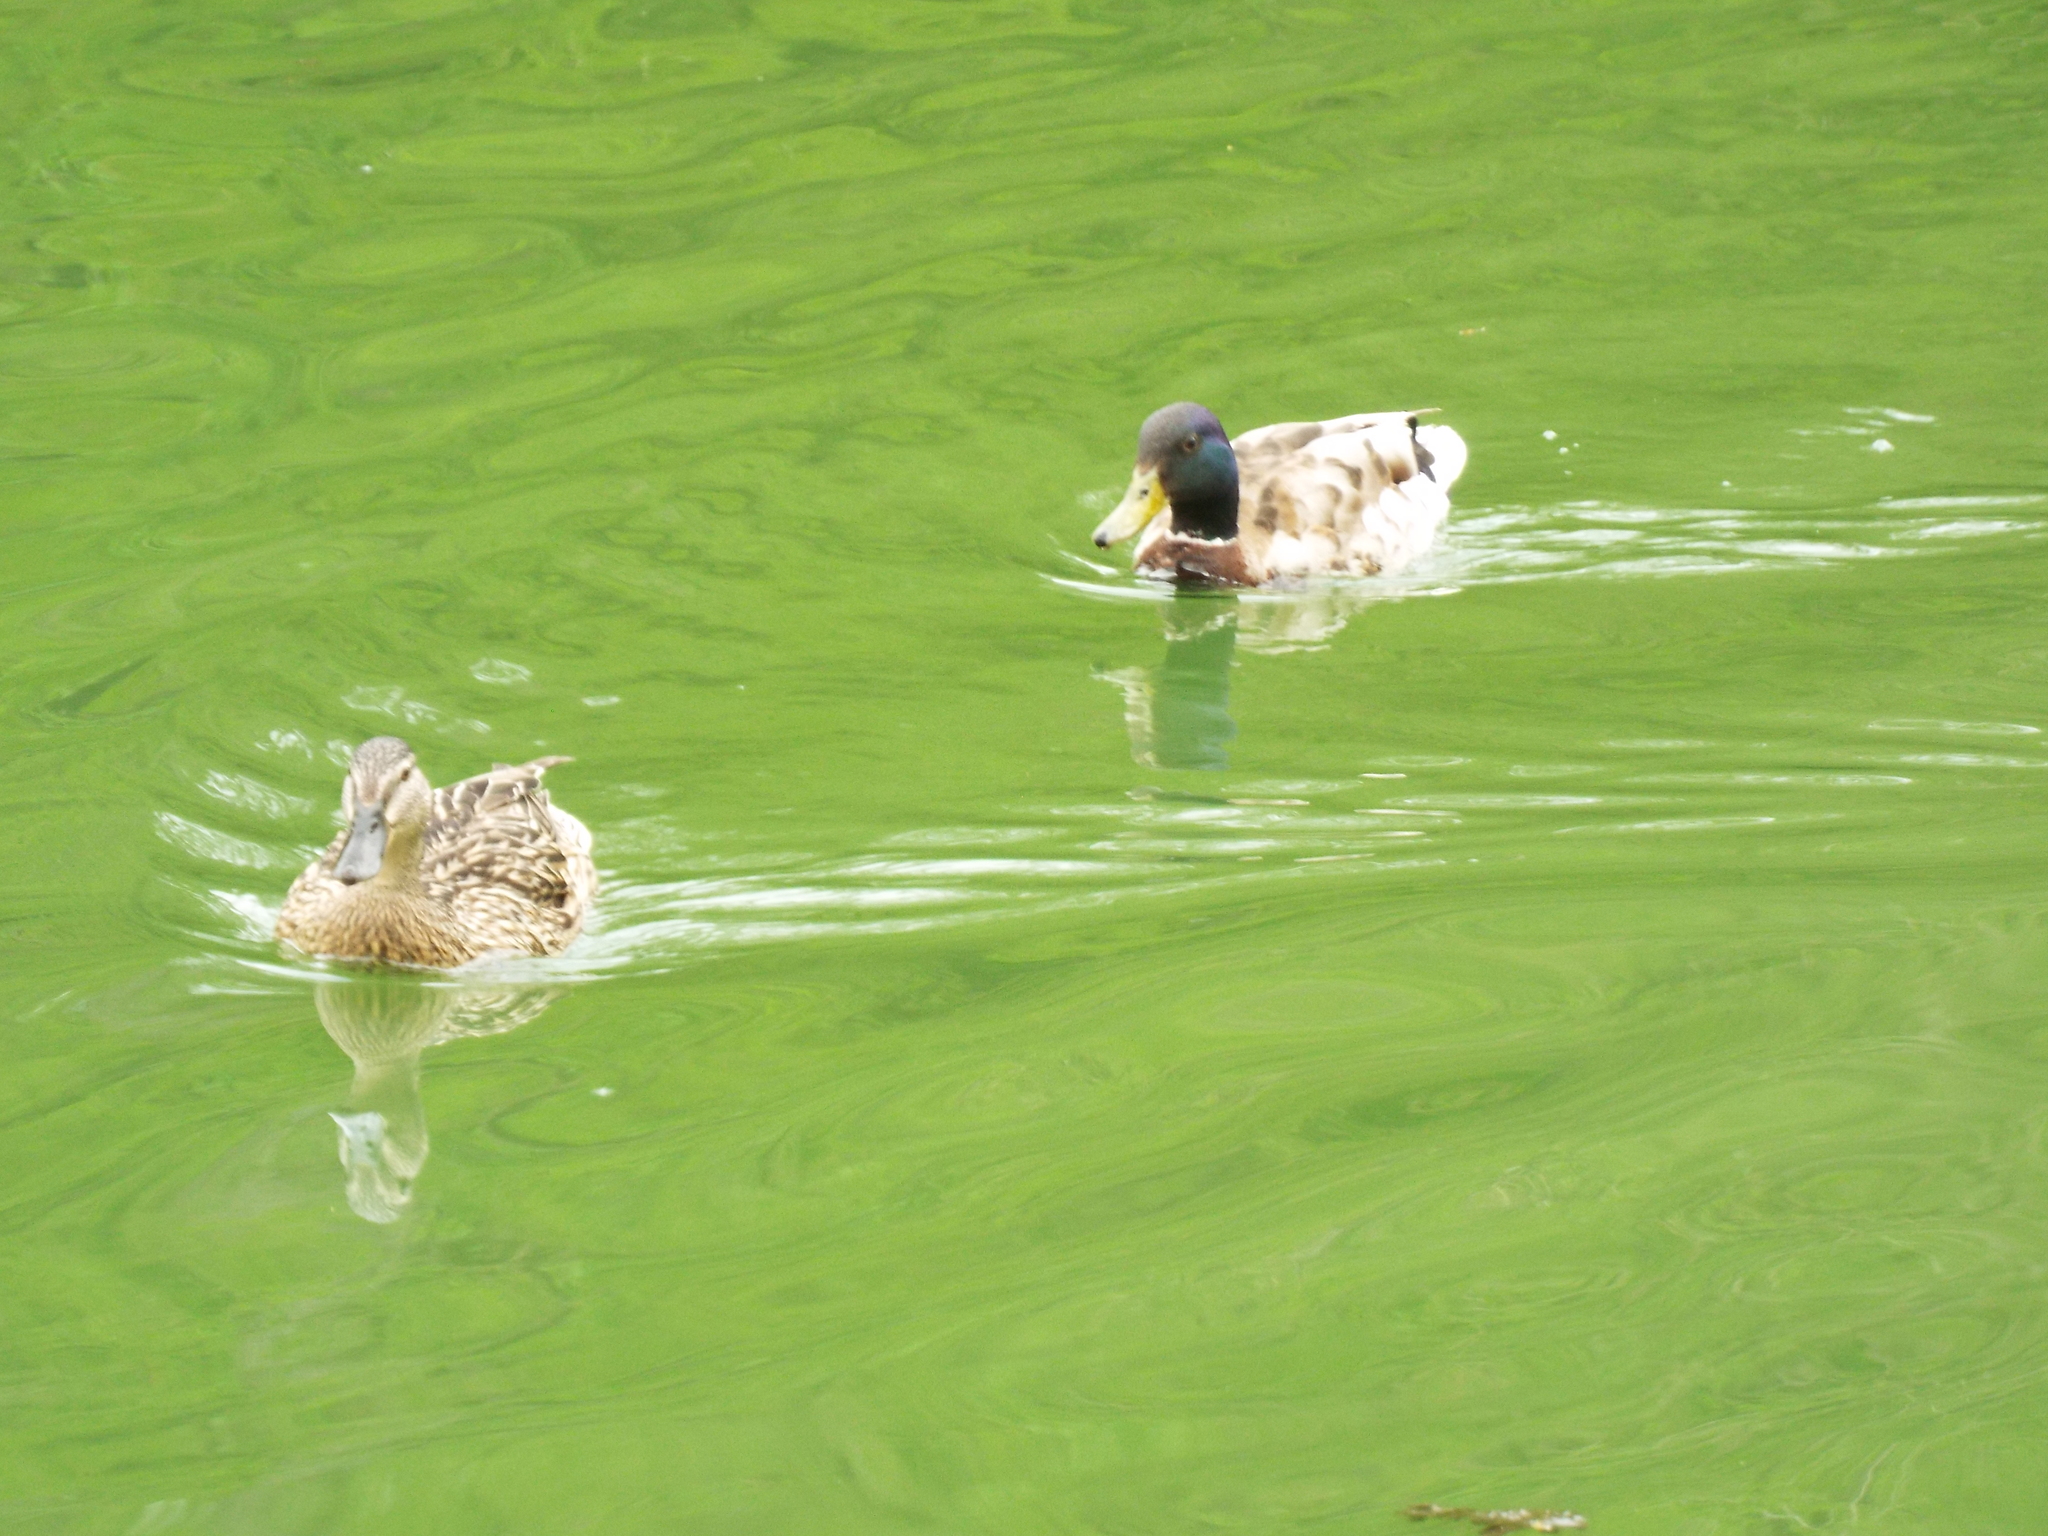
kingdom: Animalia
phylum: Chordata
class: Aves
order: Anseriformes
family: Anatidae
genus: Anas
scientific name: Anas platyrhynchos
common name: Mallard
